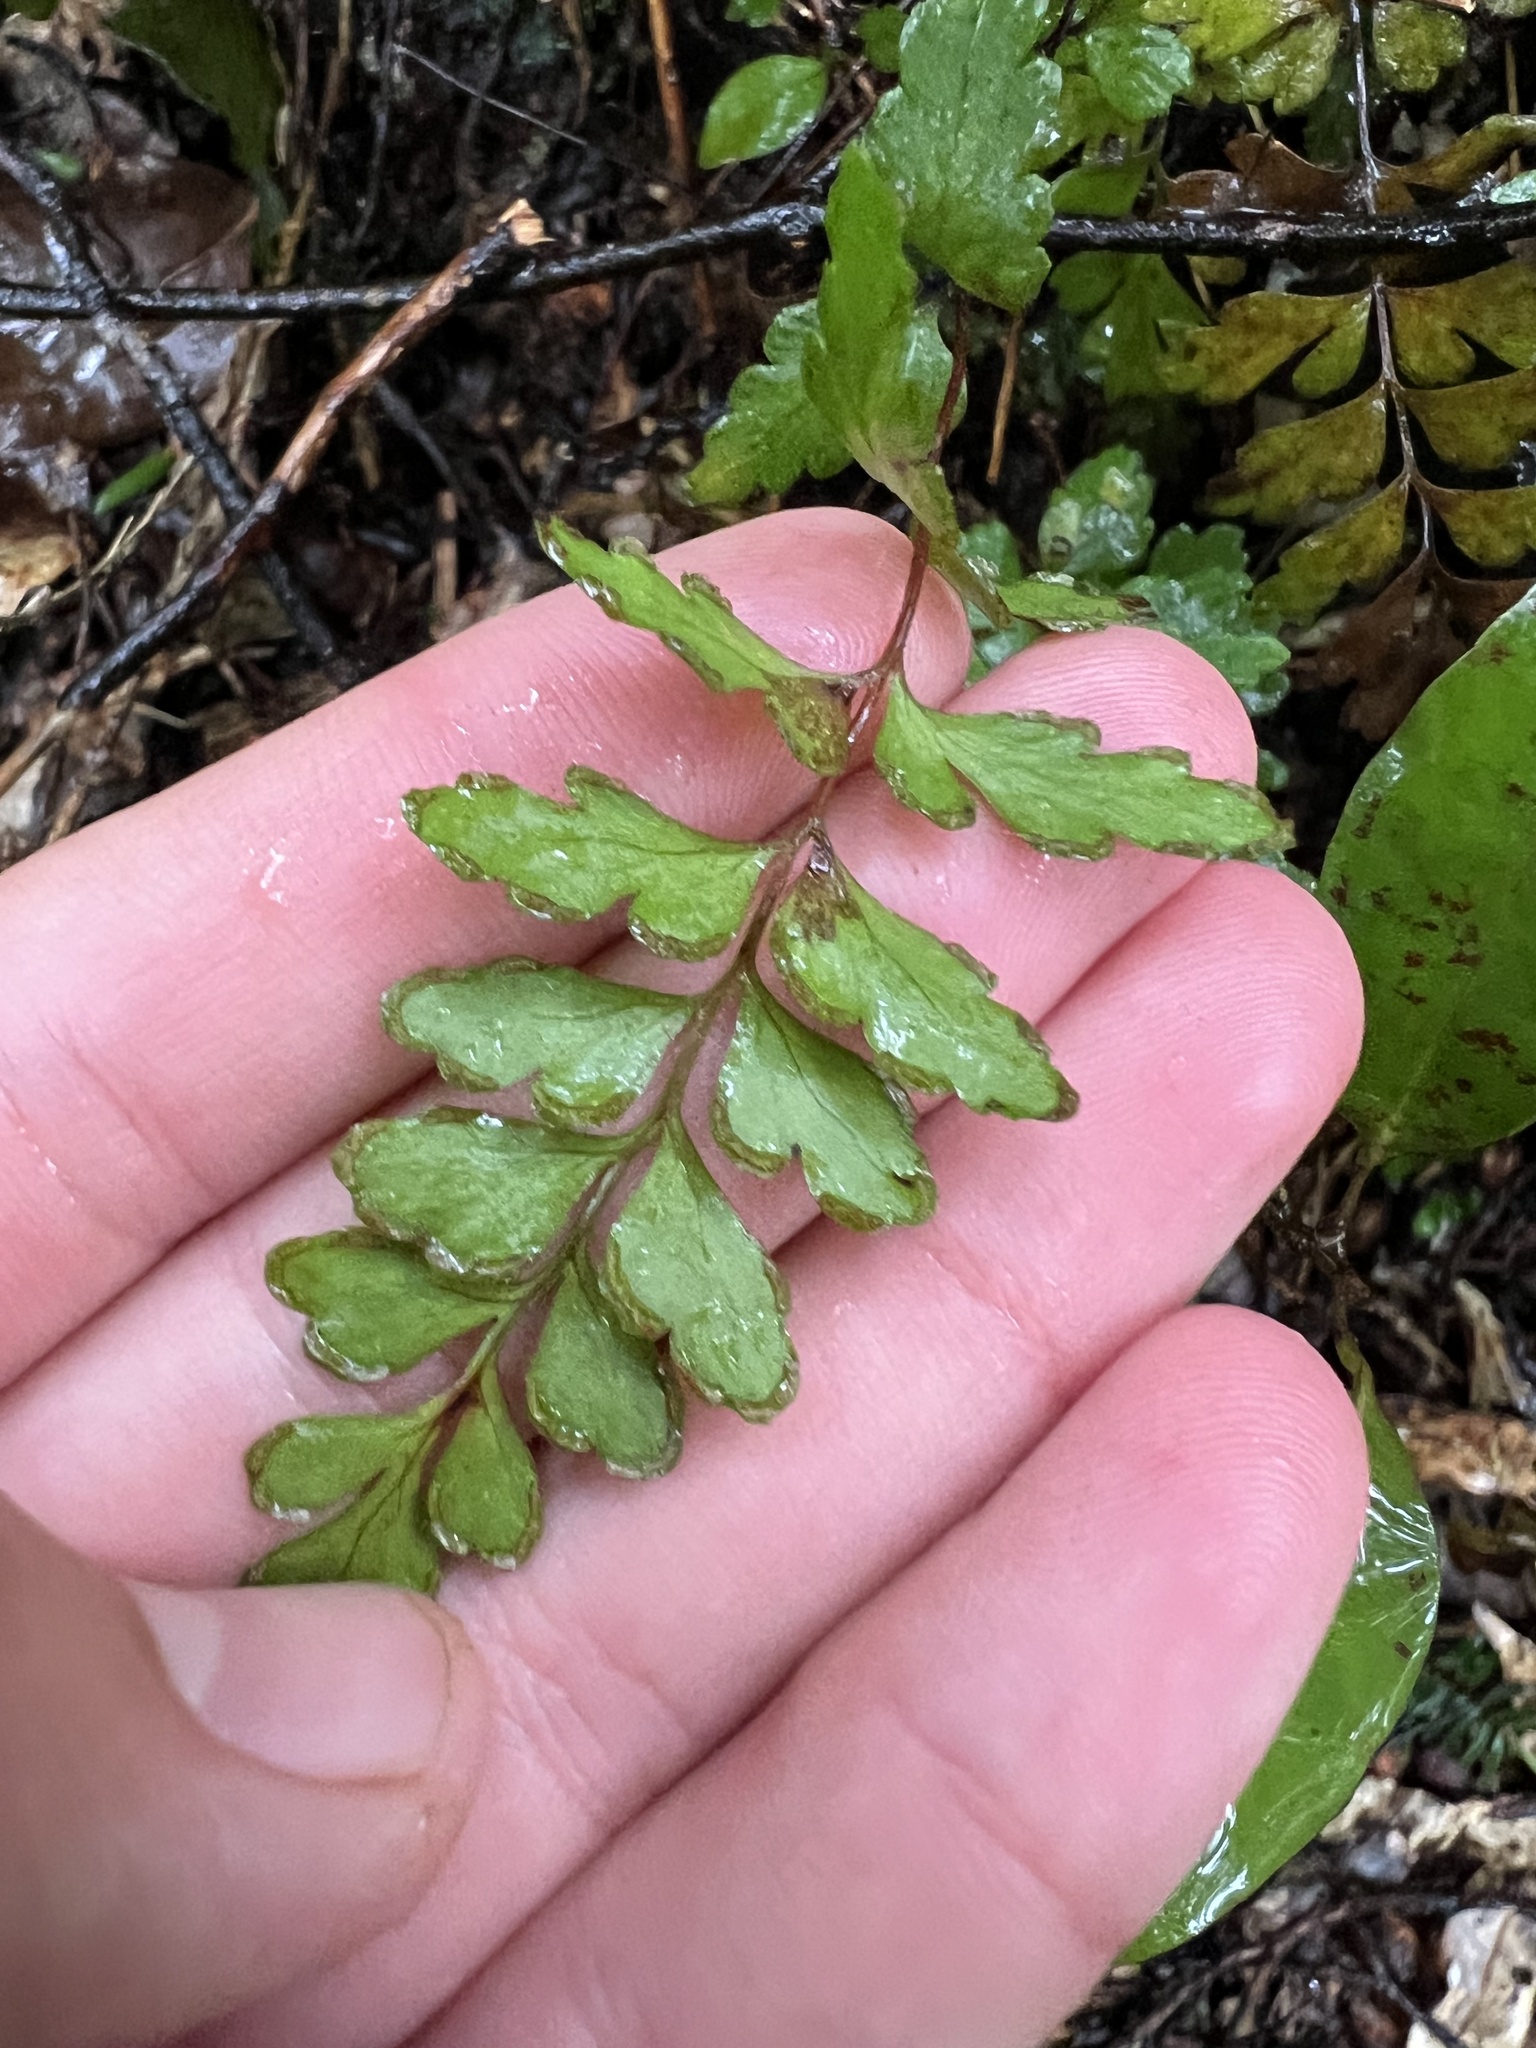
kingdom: Plantae
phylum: Tracheophyta
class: Polypodiopsida
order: Polypodiales
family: Lindsaeaceae
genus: Lindsaea
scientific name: Lindsaea trichomanoides
